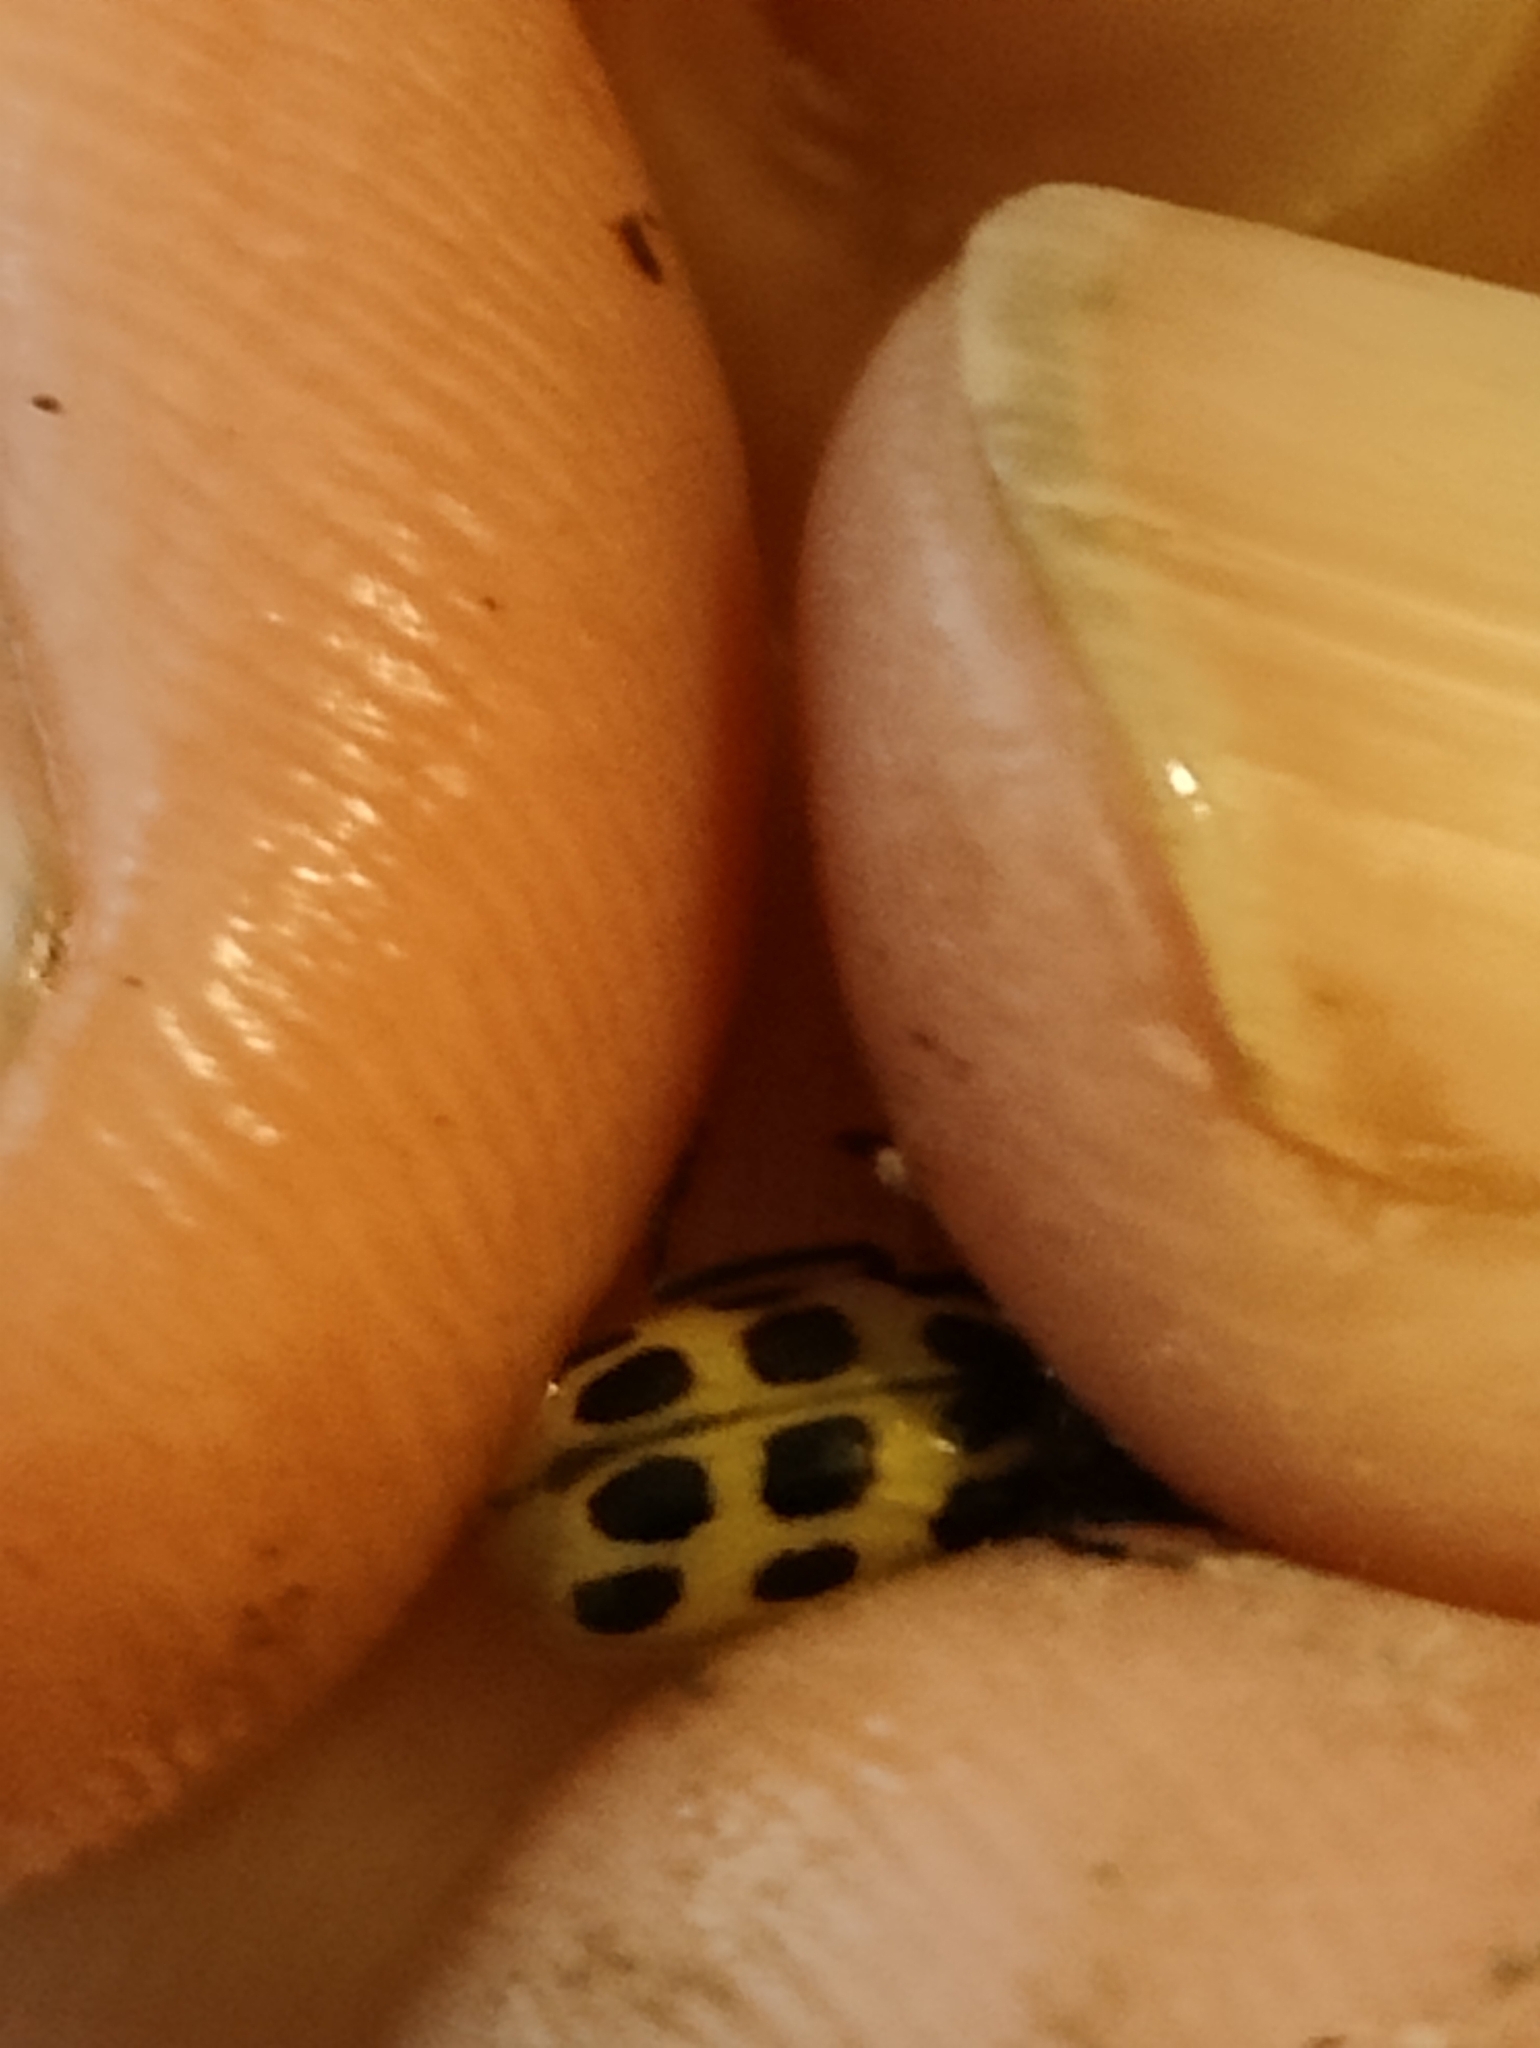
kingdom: Animalia
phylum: Arthropoda
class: Insecta
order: Coleoptera
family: Coccinellidae
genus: Propylaea
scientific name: Propylaea quatuordecimpunctata
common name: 14-spotted ladybird beetle
